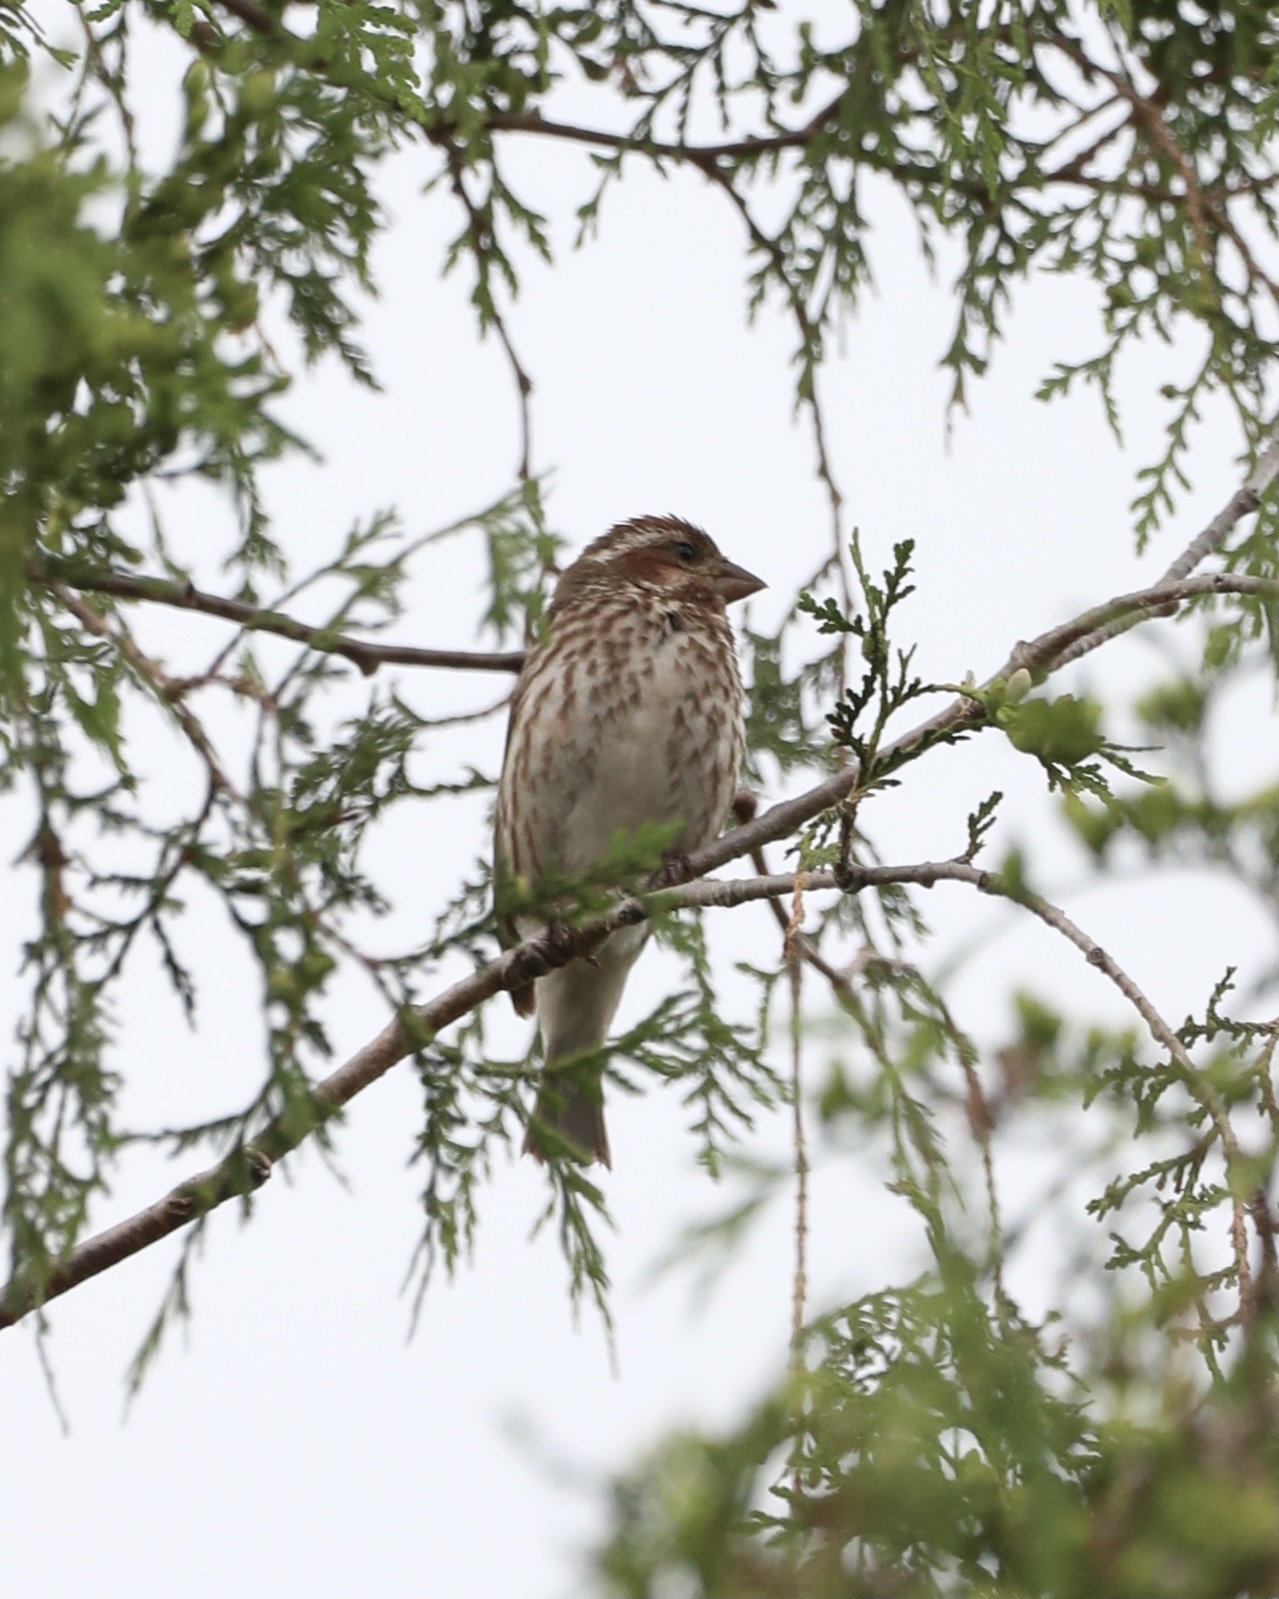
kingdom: Animalia
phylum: Chordata
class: Aves
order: Passeriformes
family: Fringillidae
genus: Haemorhous
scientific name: Haemorhous purpureus
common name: Purple finch
